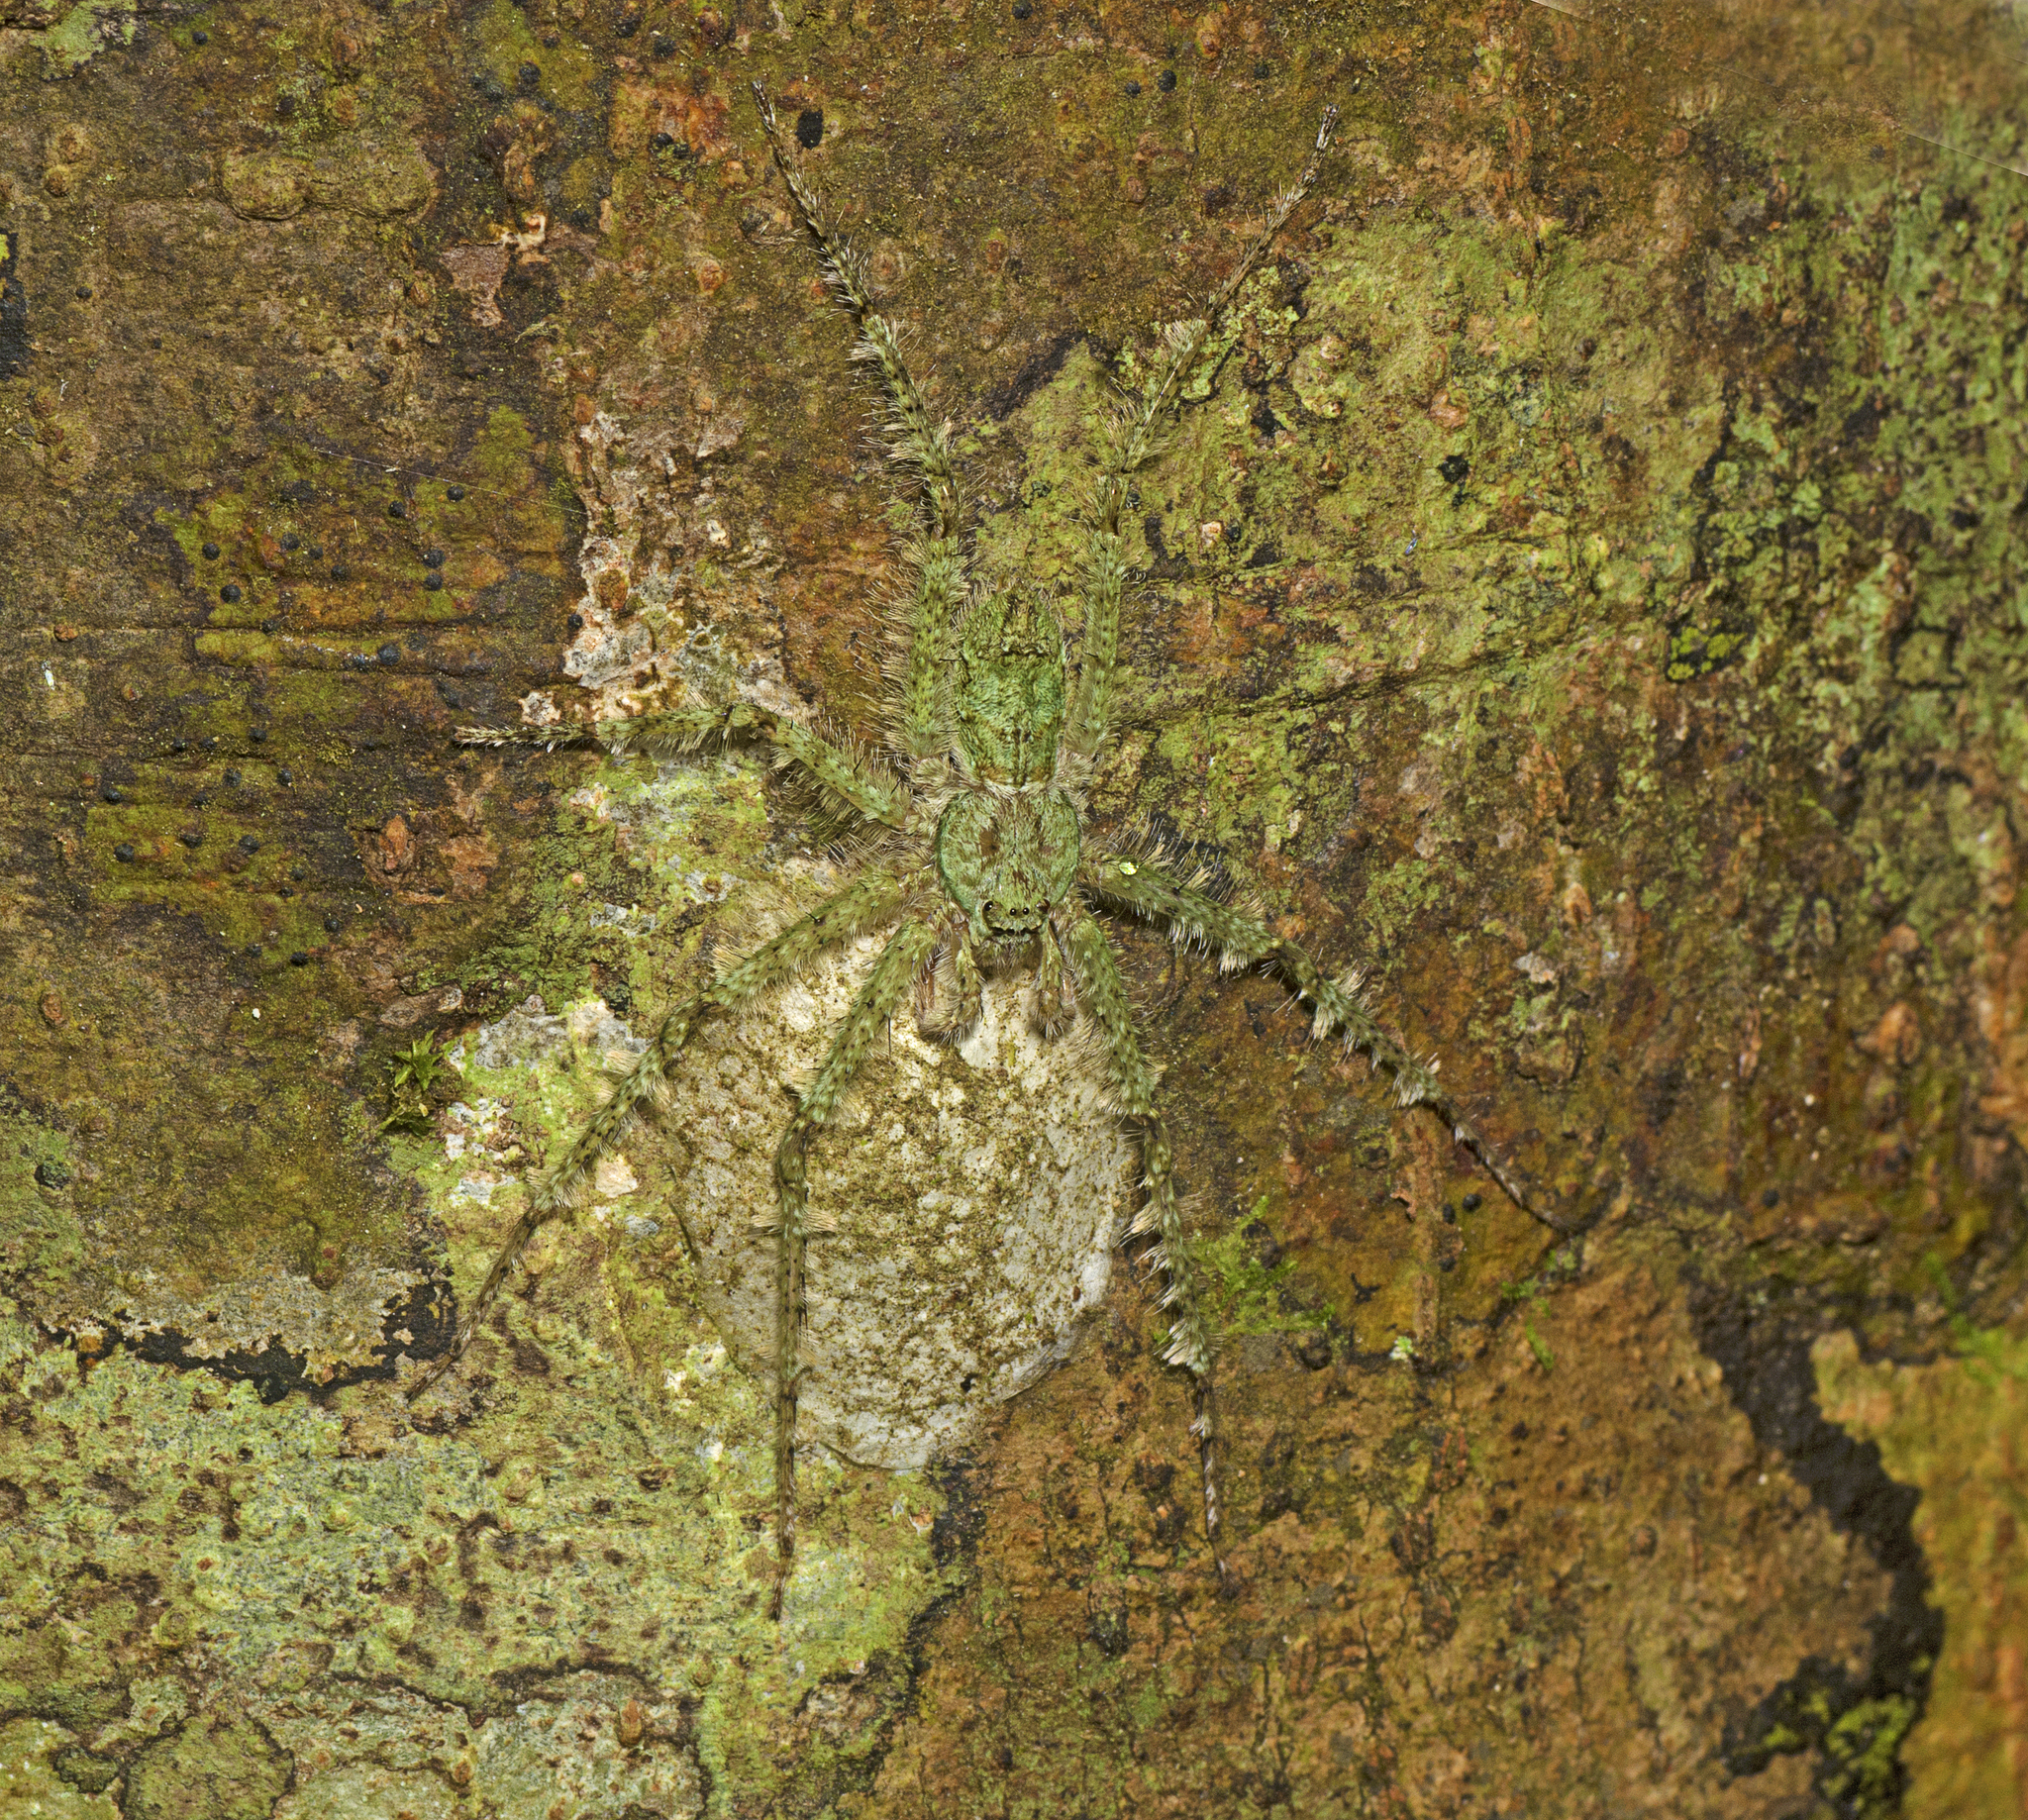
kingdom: Animalia
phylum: Arthropoda
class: Arachnida
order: Araneae
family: Sparassidae
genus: Pandercetes
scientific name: Pandercetes gracilis
